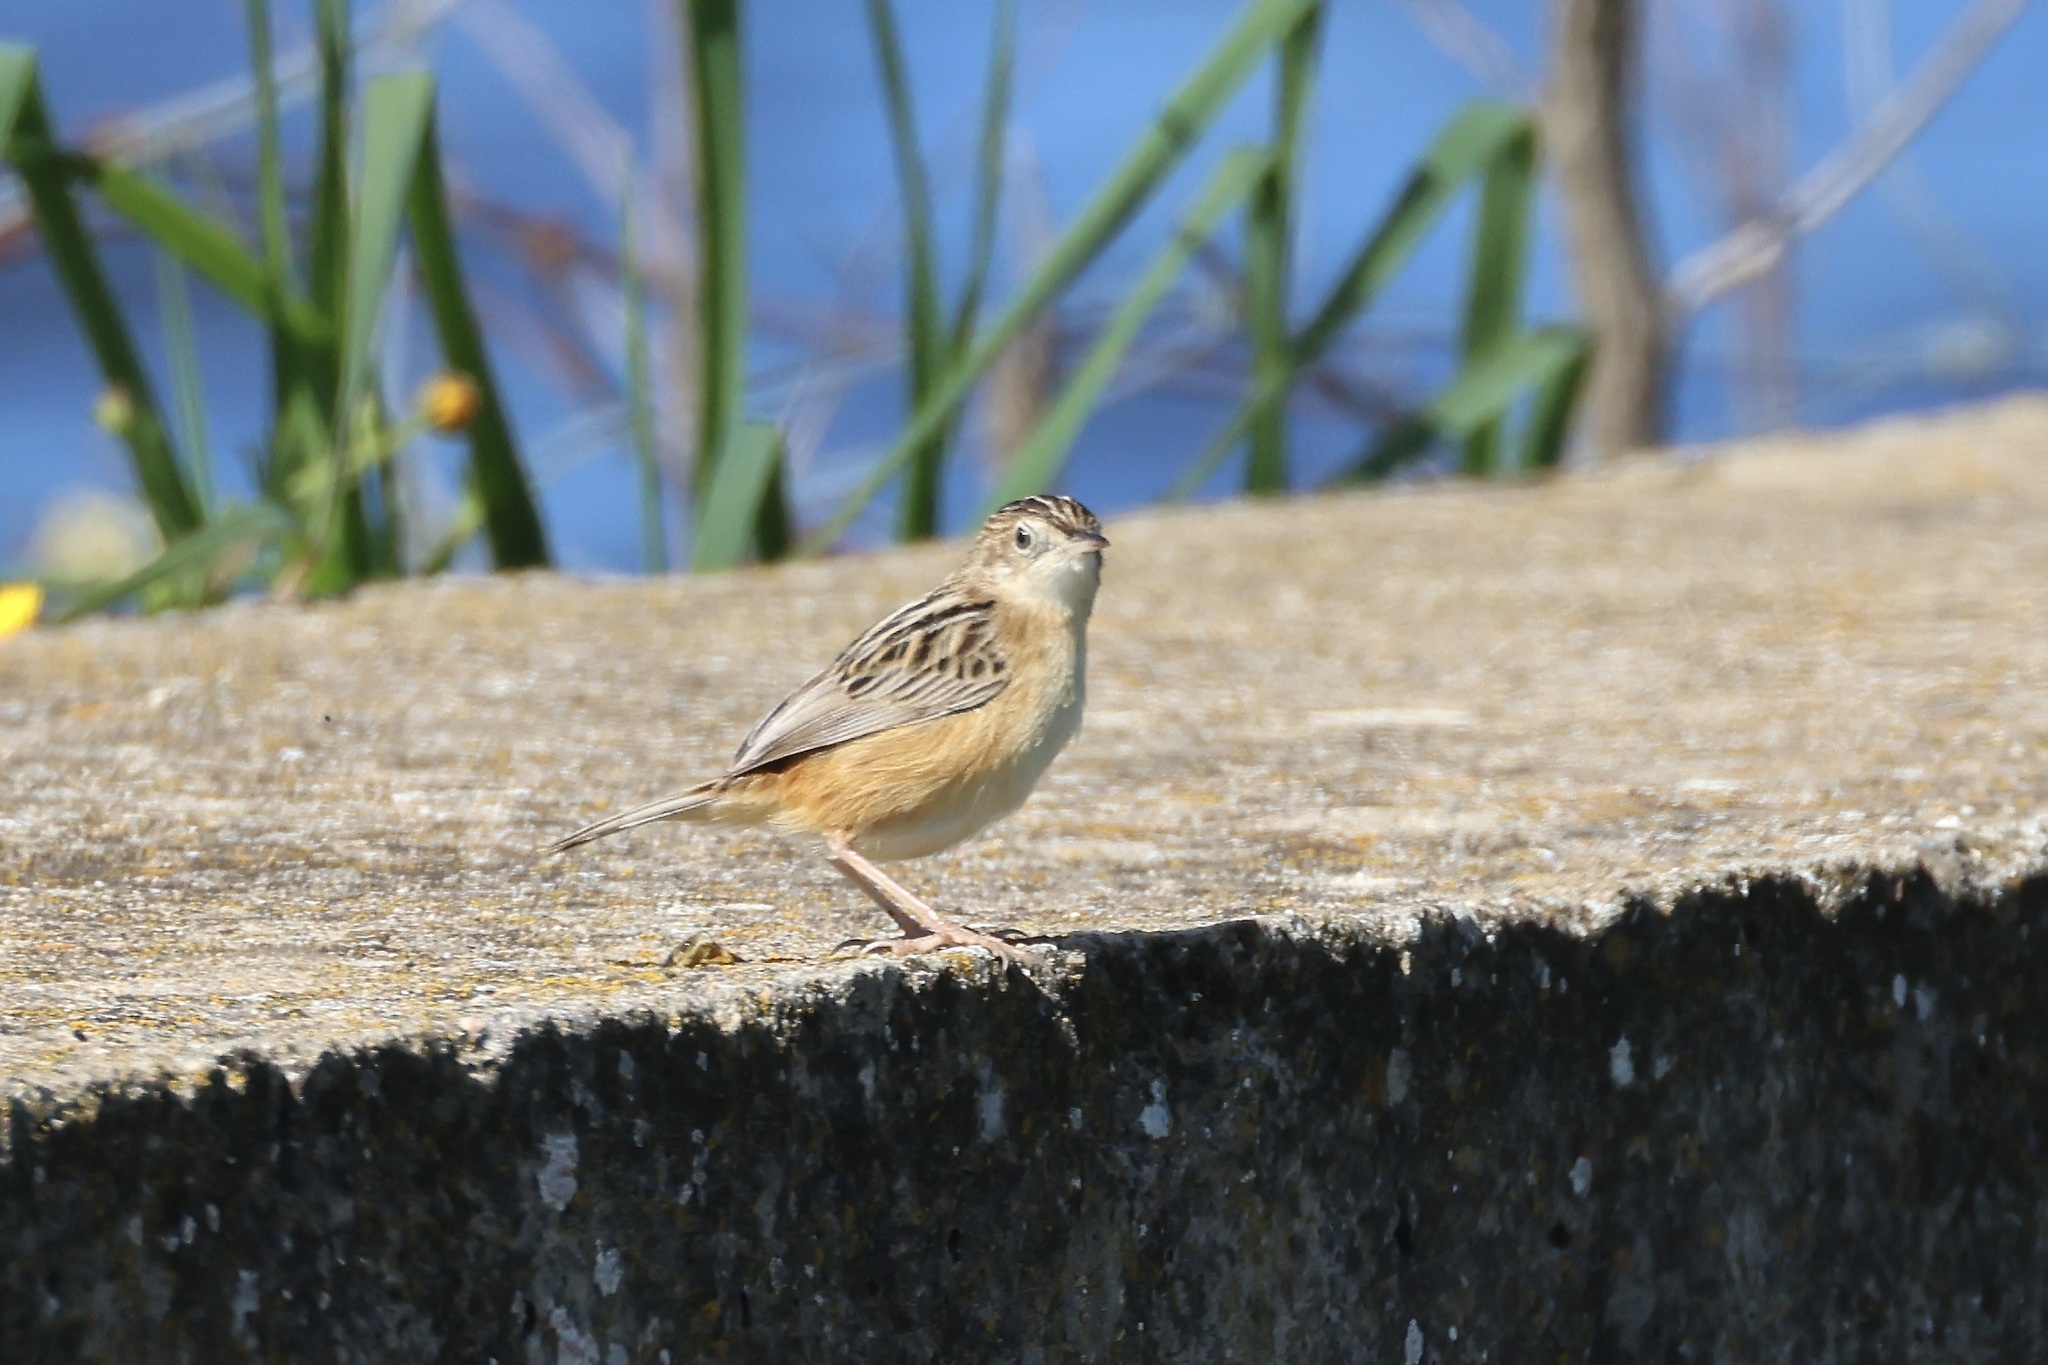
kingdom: Animalia
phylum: Chordata
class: Aves
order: Passeriformes
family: Cisticolidae
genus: Cisticola
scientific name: Cisticola juncidis
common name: Zitting cisticola
